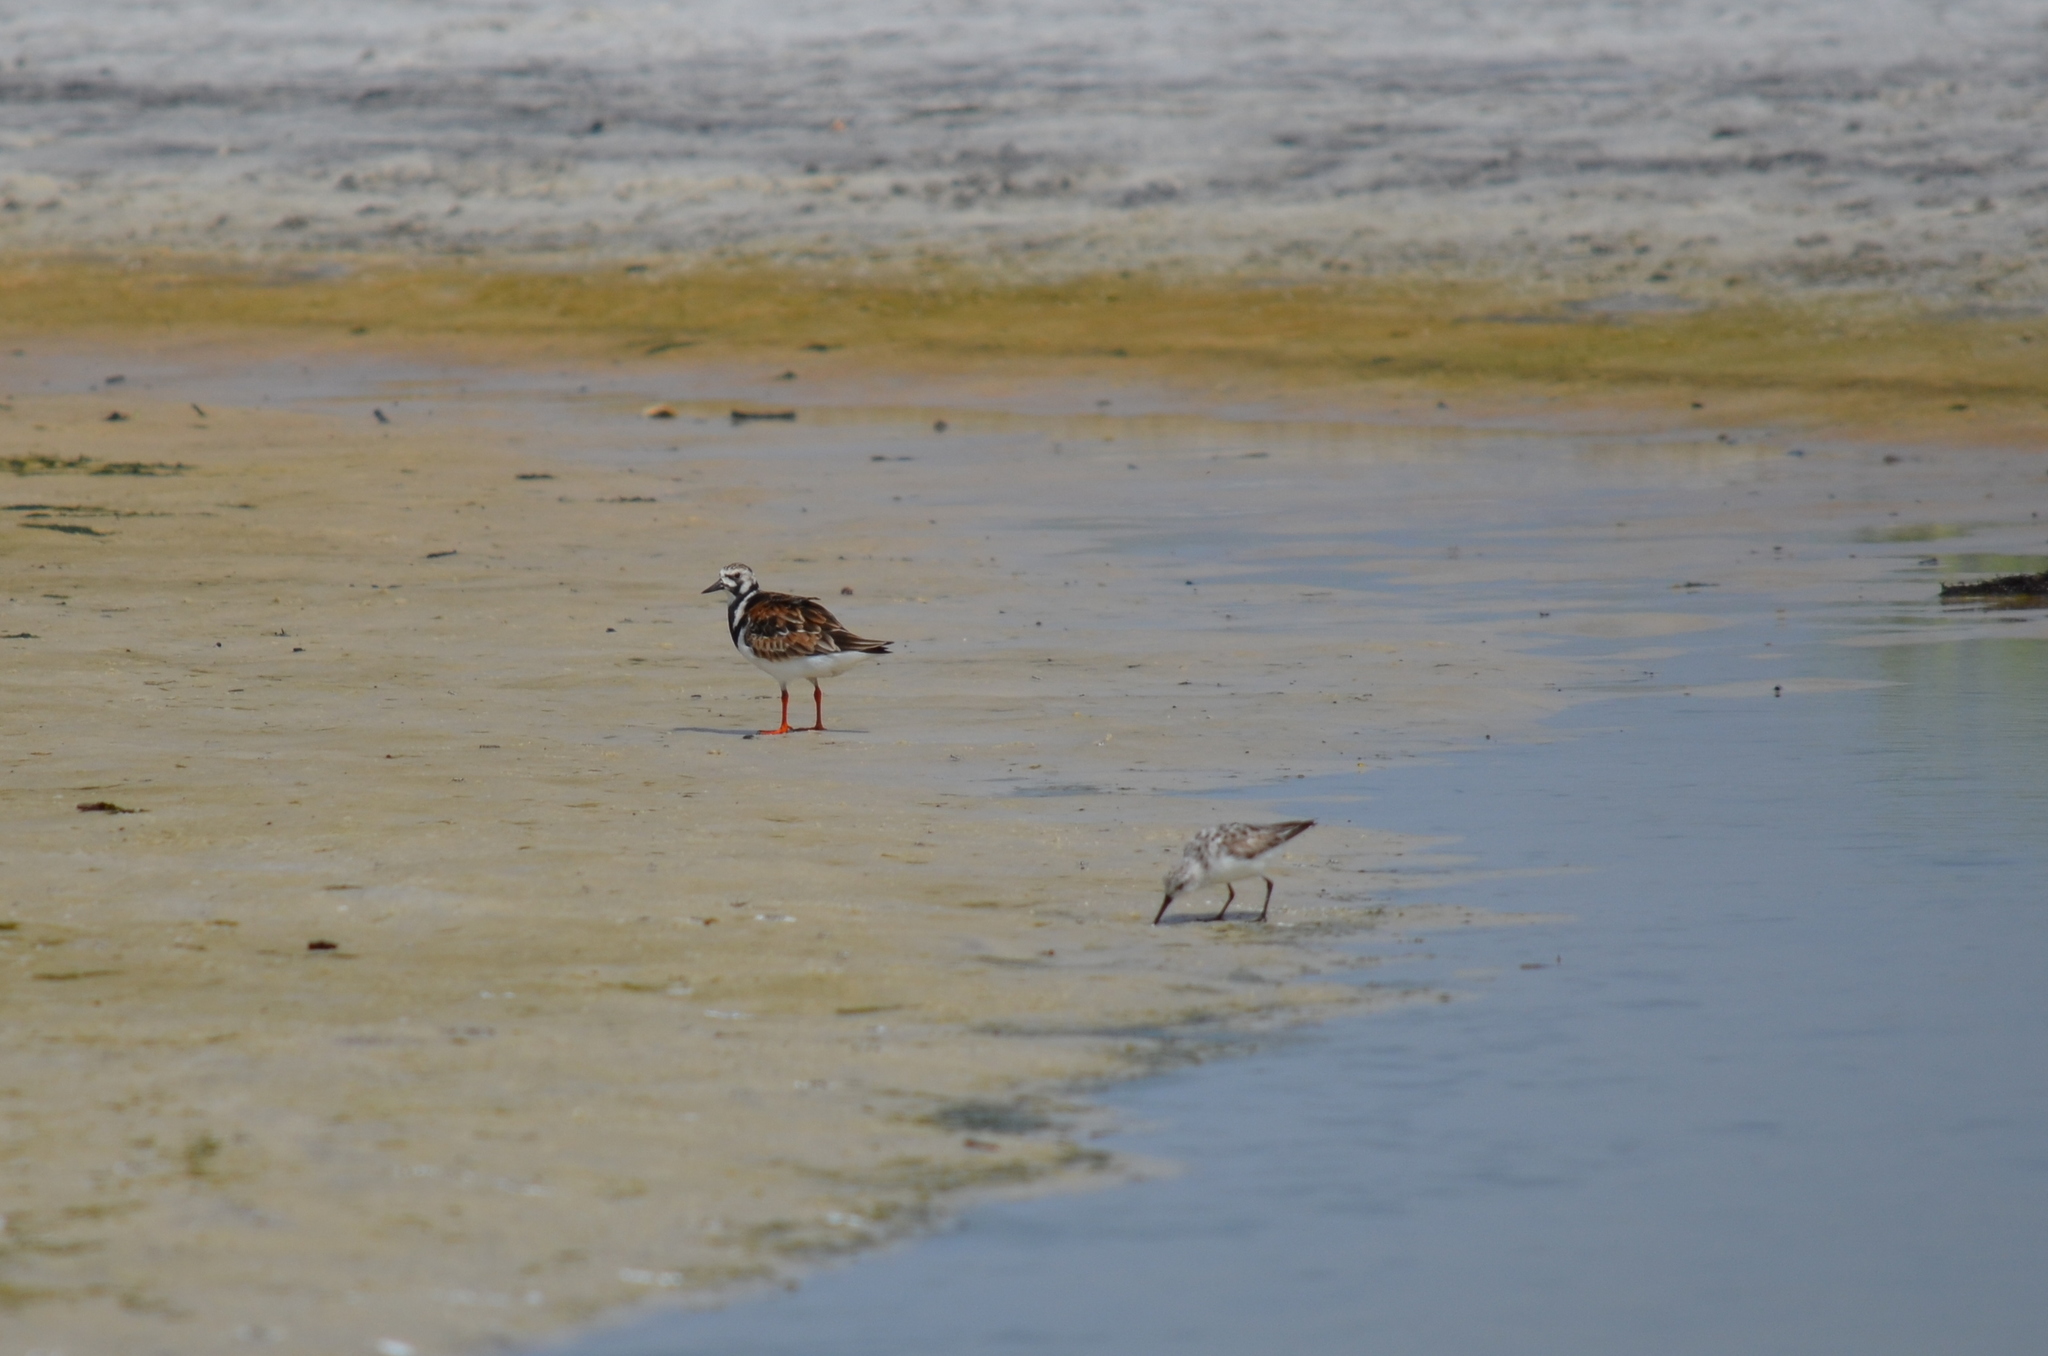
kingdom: Animalia
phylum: Chordata
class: Aves
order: Charadriiformes
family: Scolopacidae
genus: Arenaria
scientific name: Arenaria interpres
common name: Ruddy turnstone
